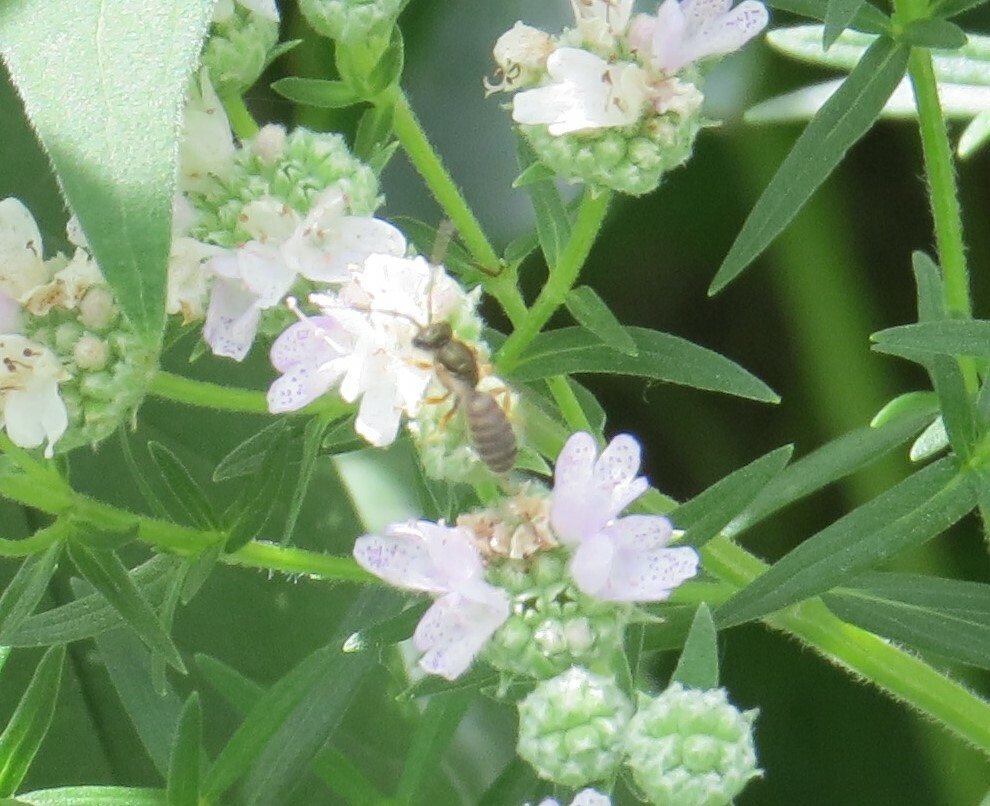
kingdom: Animalia
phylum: Arthropoda
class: Insecta
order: Hymenoptera
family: Halictidae
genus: Halictus
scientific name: Halictus confusus
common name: Southern bronze furrow bee
